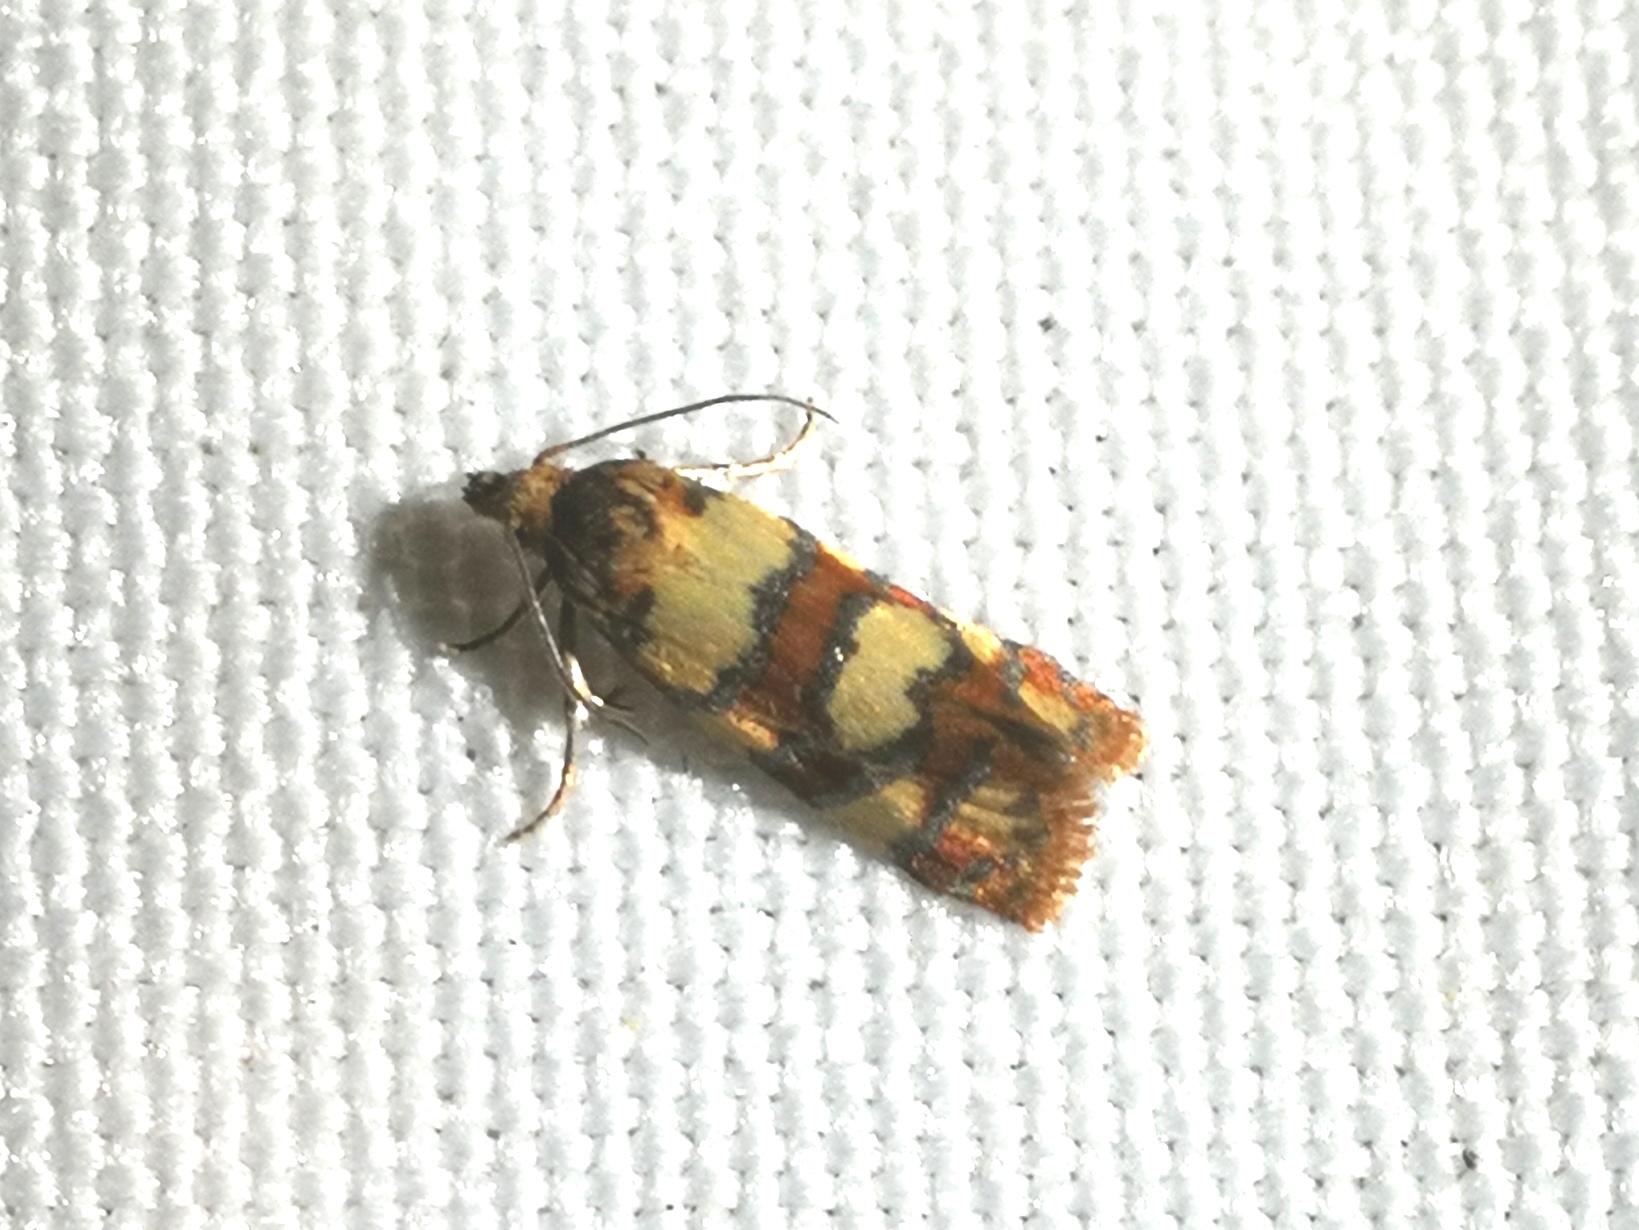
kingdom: Animalia
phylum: Arthropoda
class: Insecta
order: Lepidoptera
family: Tortricidae
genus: Aethes
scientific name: Aethes tesserana
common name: Downland conch
